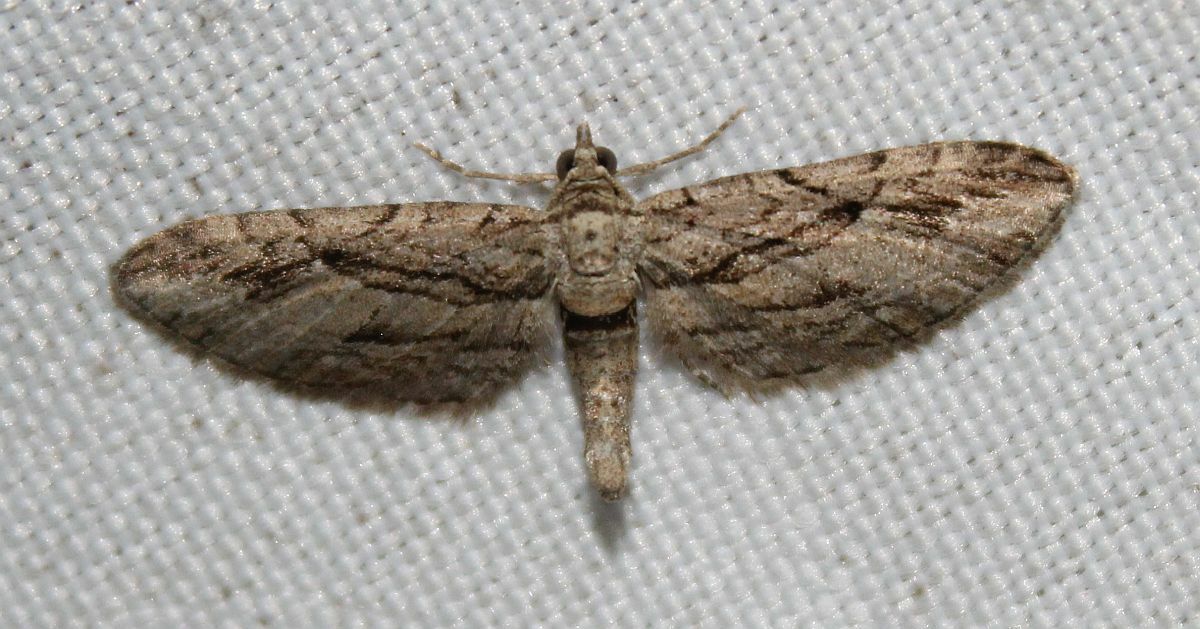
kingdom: Animalia
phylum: Arthropoda
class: Insecta
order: Lepidoptera
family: Geometridae
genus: Eupithecia
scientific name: Eupithecia phoeniceata
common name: Cypress pug
